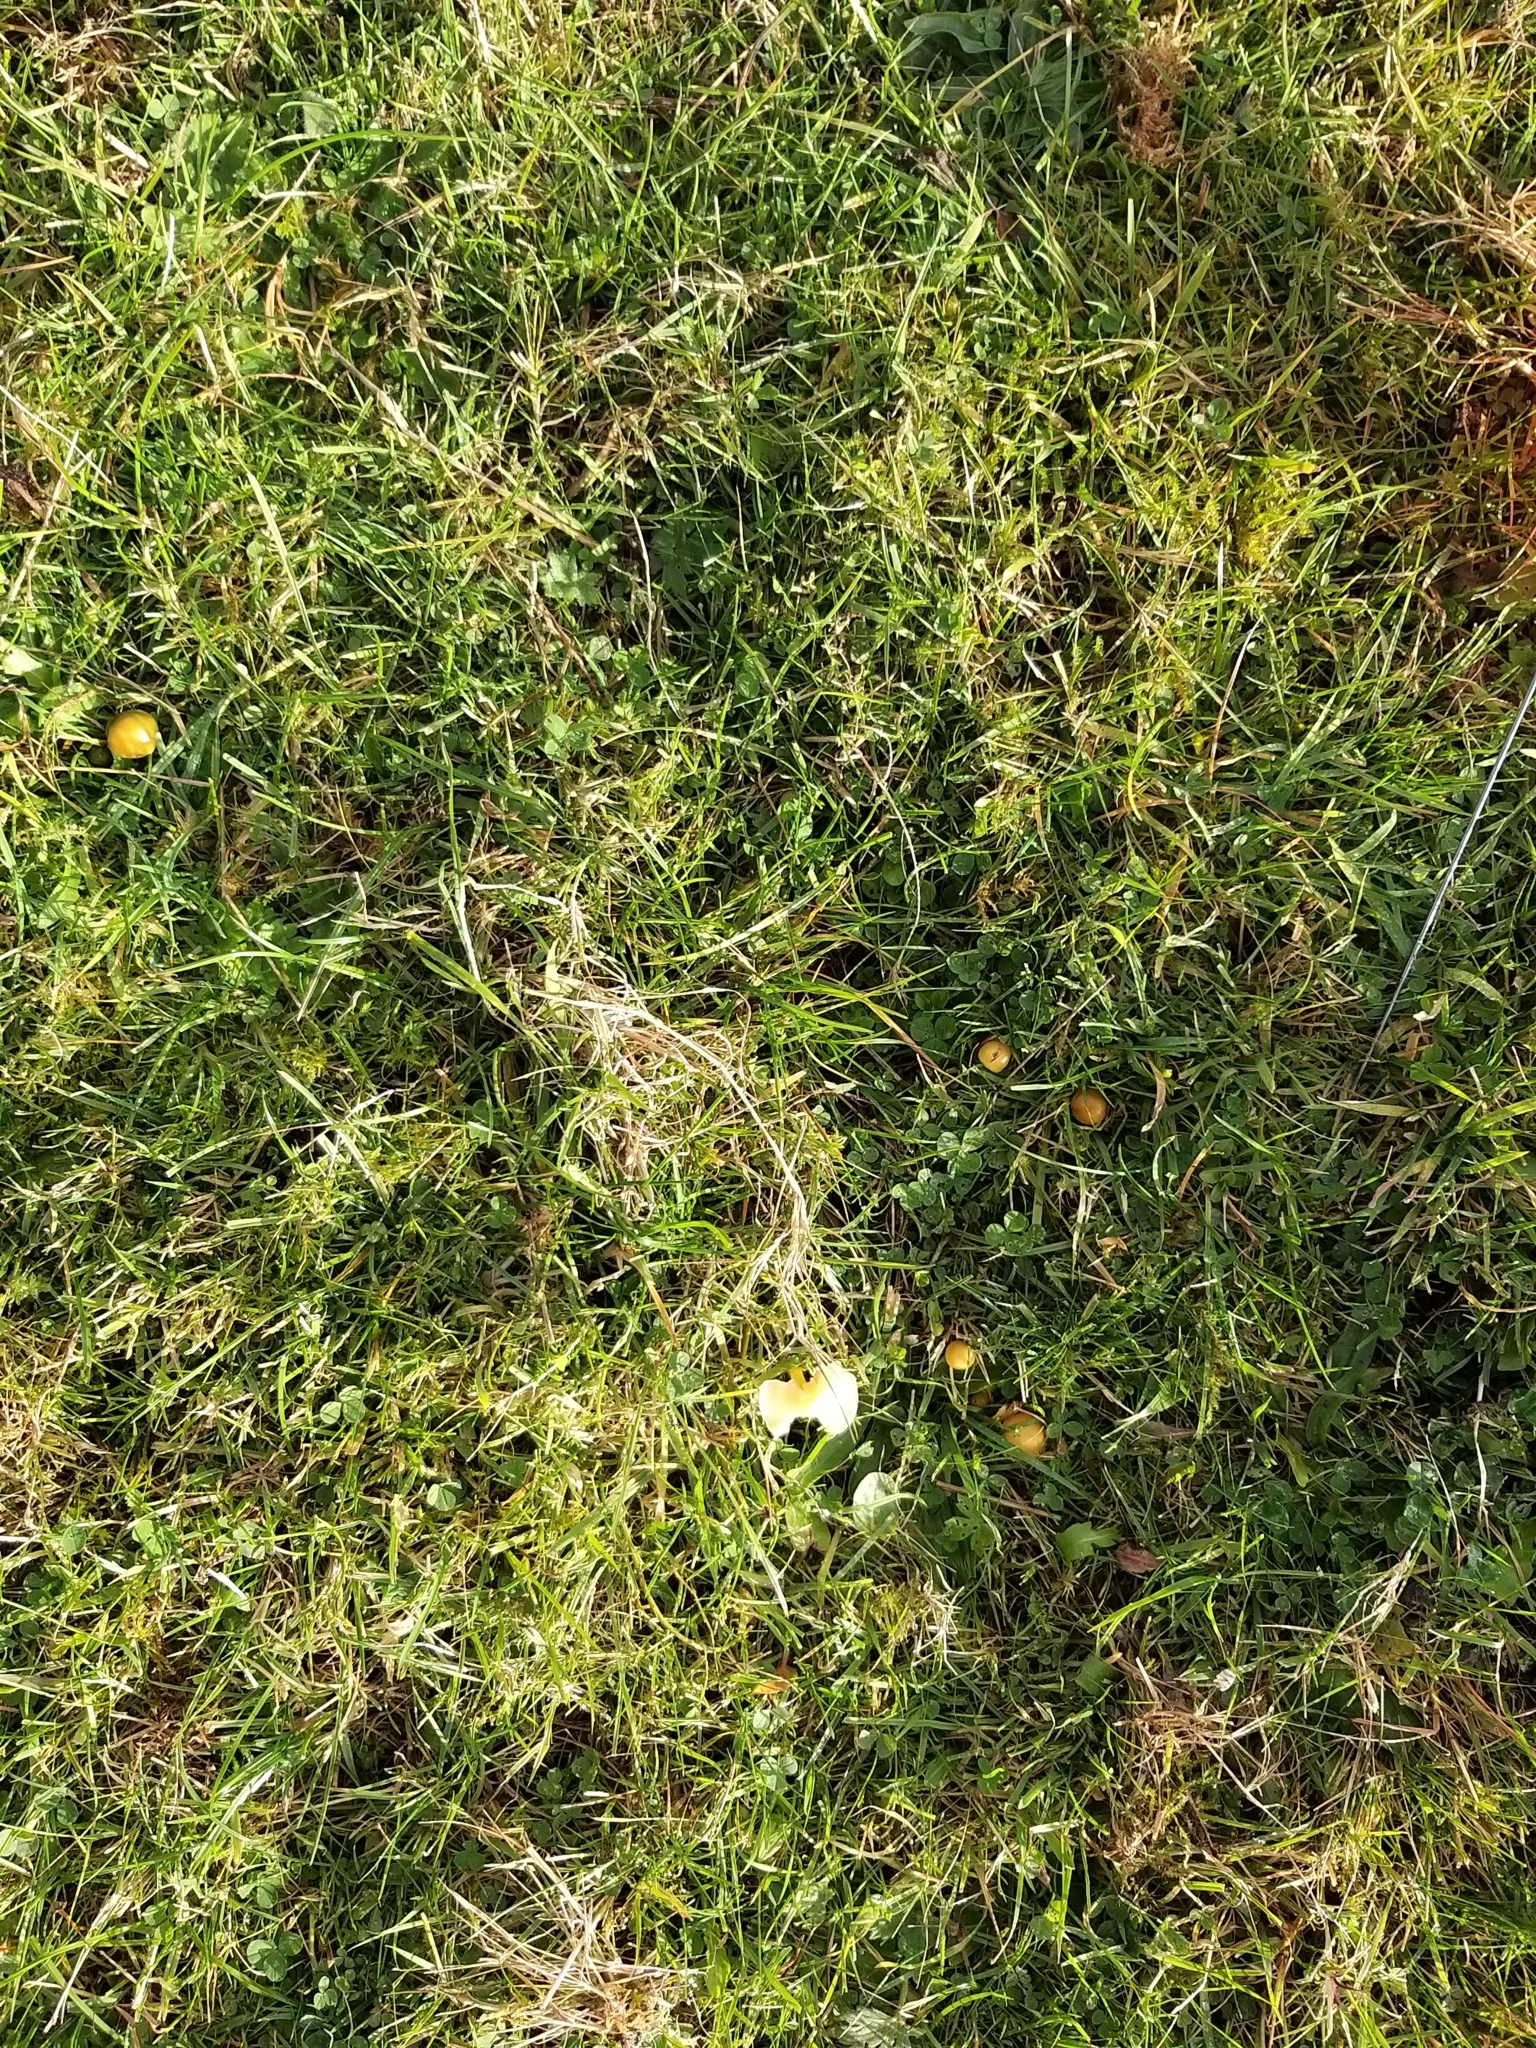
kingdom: Fungi
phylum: Basidiomycota
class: Agaricomycetes
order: Agaricales
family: Hygrophoraceae
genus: Gliophorus
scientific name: Gliophorus psittacinus
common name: Parrot wax-cap
